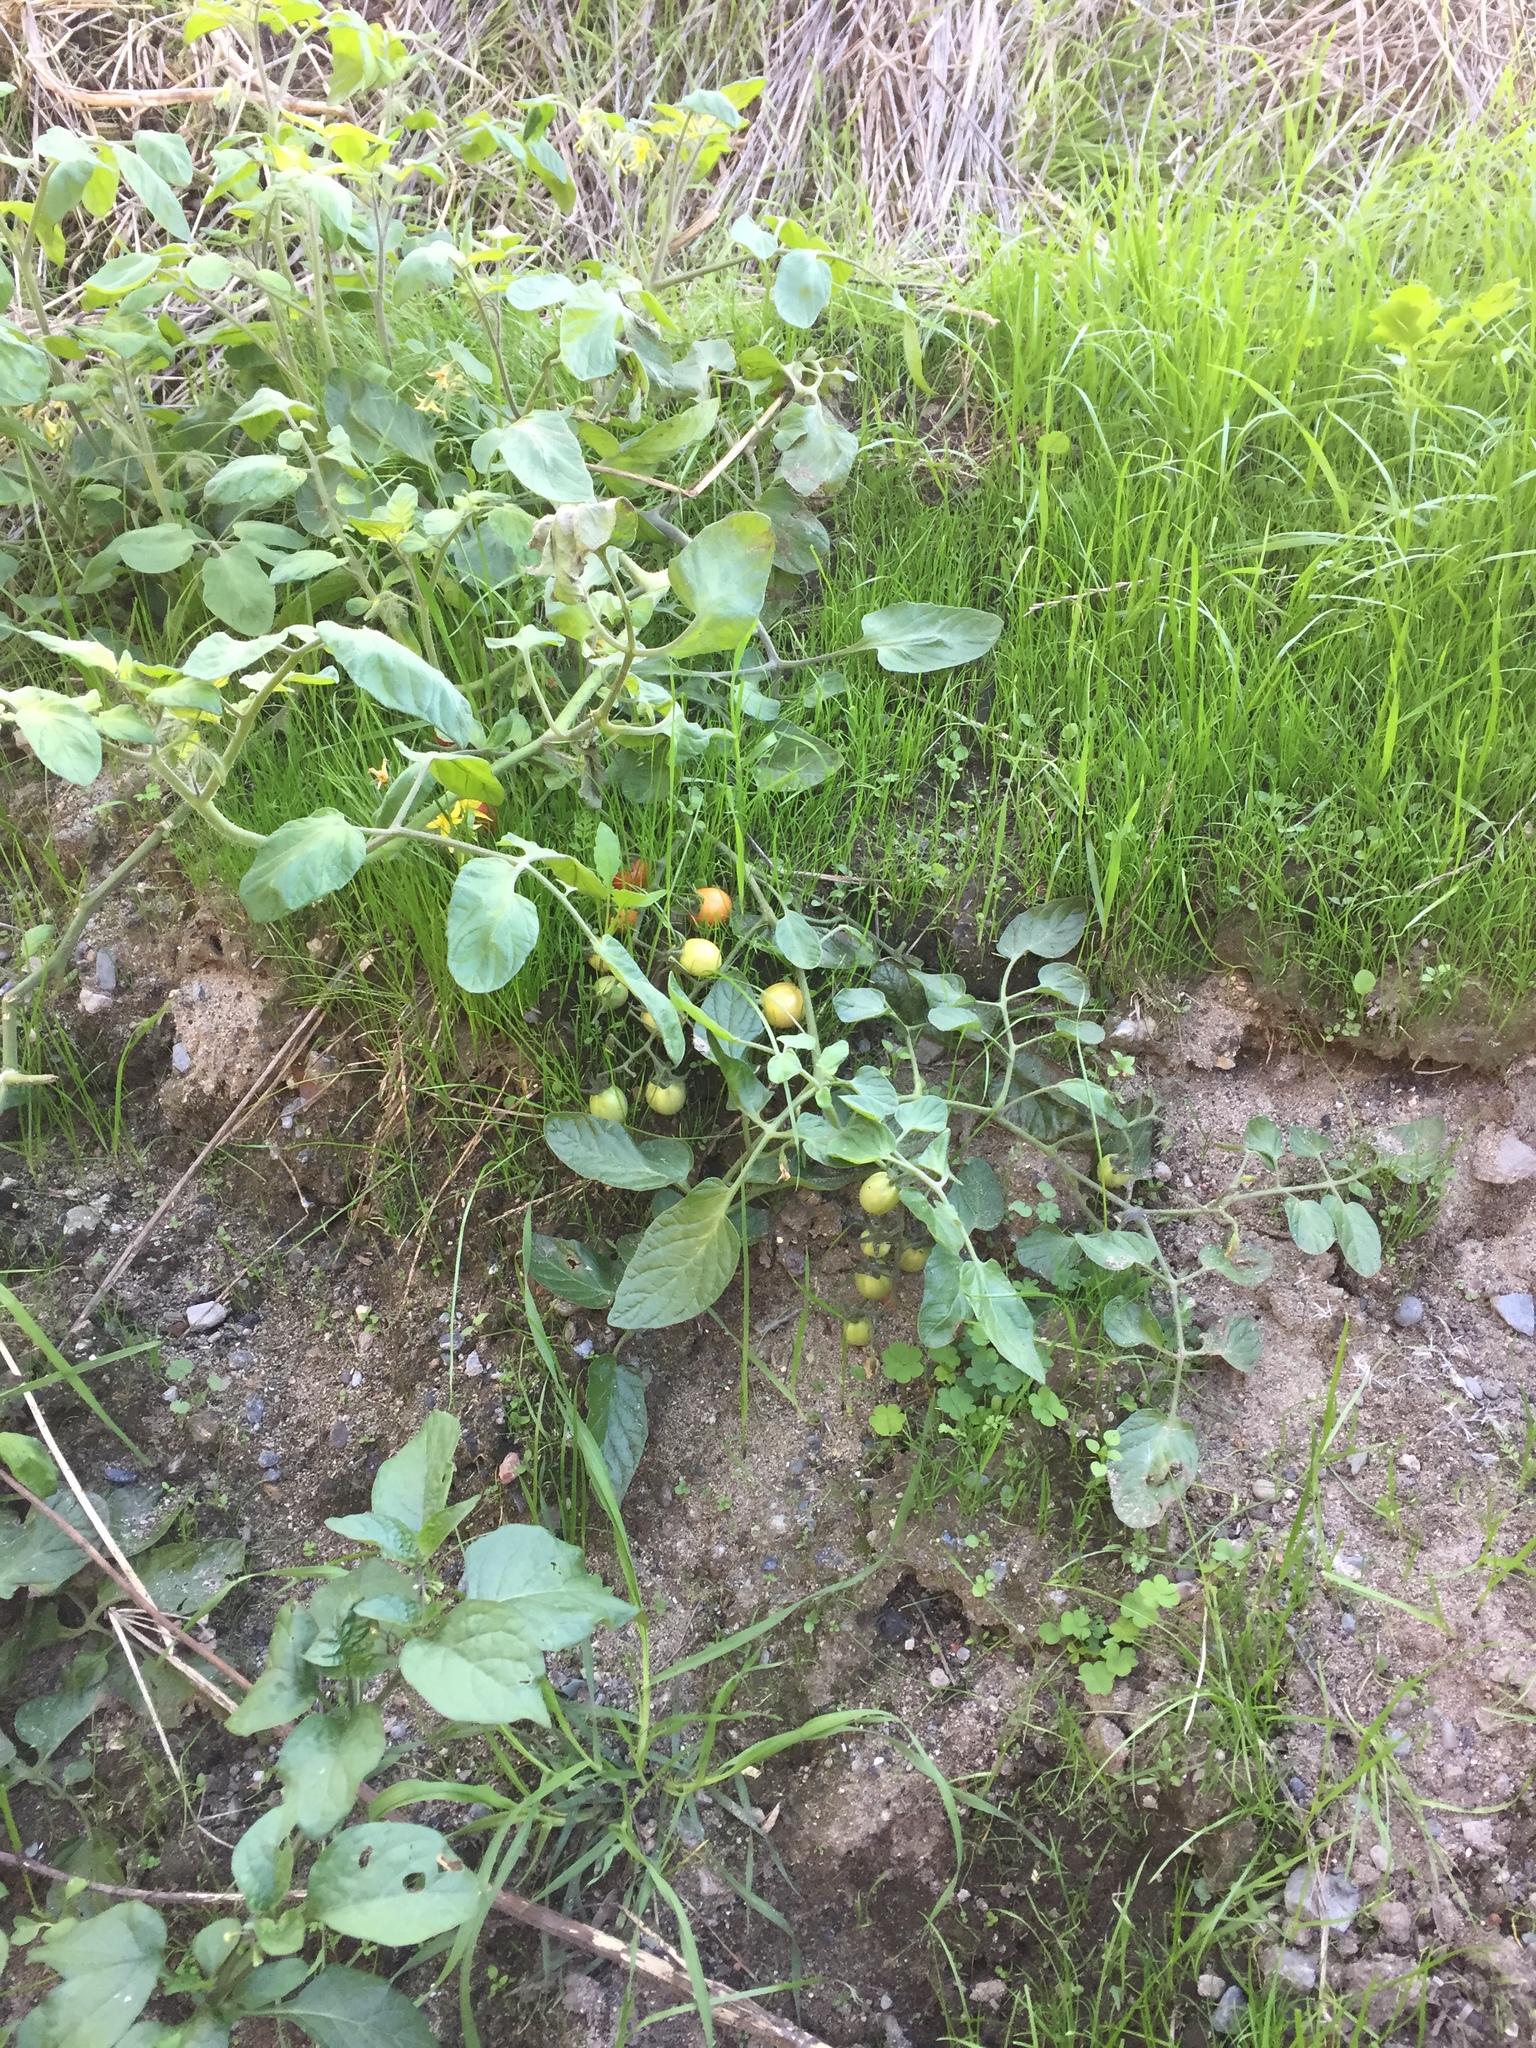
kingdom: Plantae
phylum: Tracheophyta
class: Magnoliopsida
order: Solanales
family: Solanaceae
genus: Solanum
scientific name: Solanum lycopersicum
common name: Garden tomato
